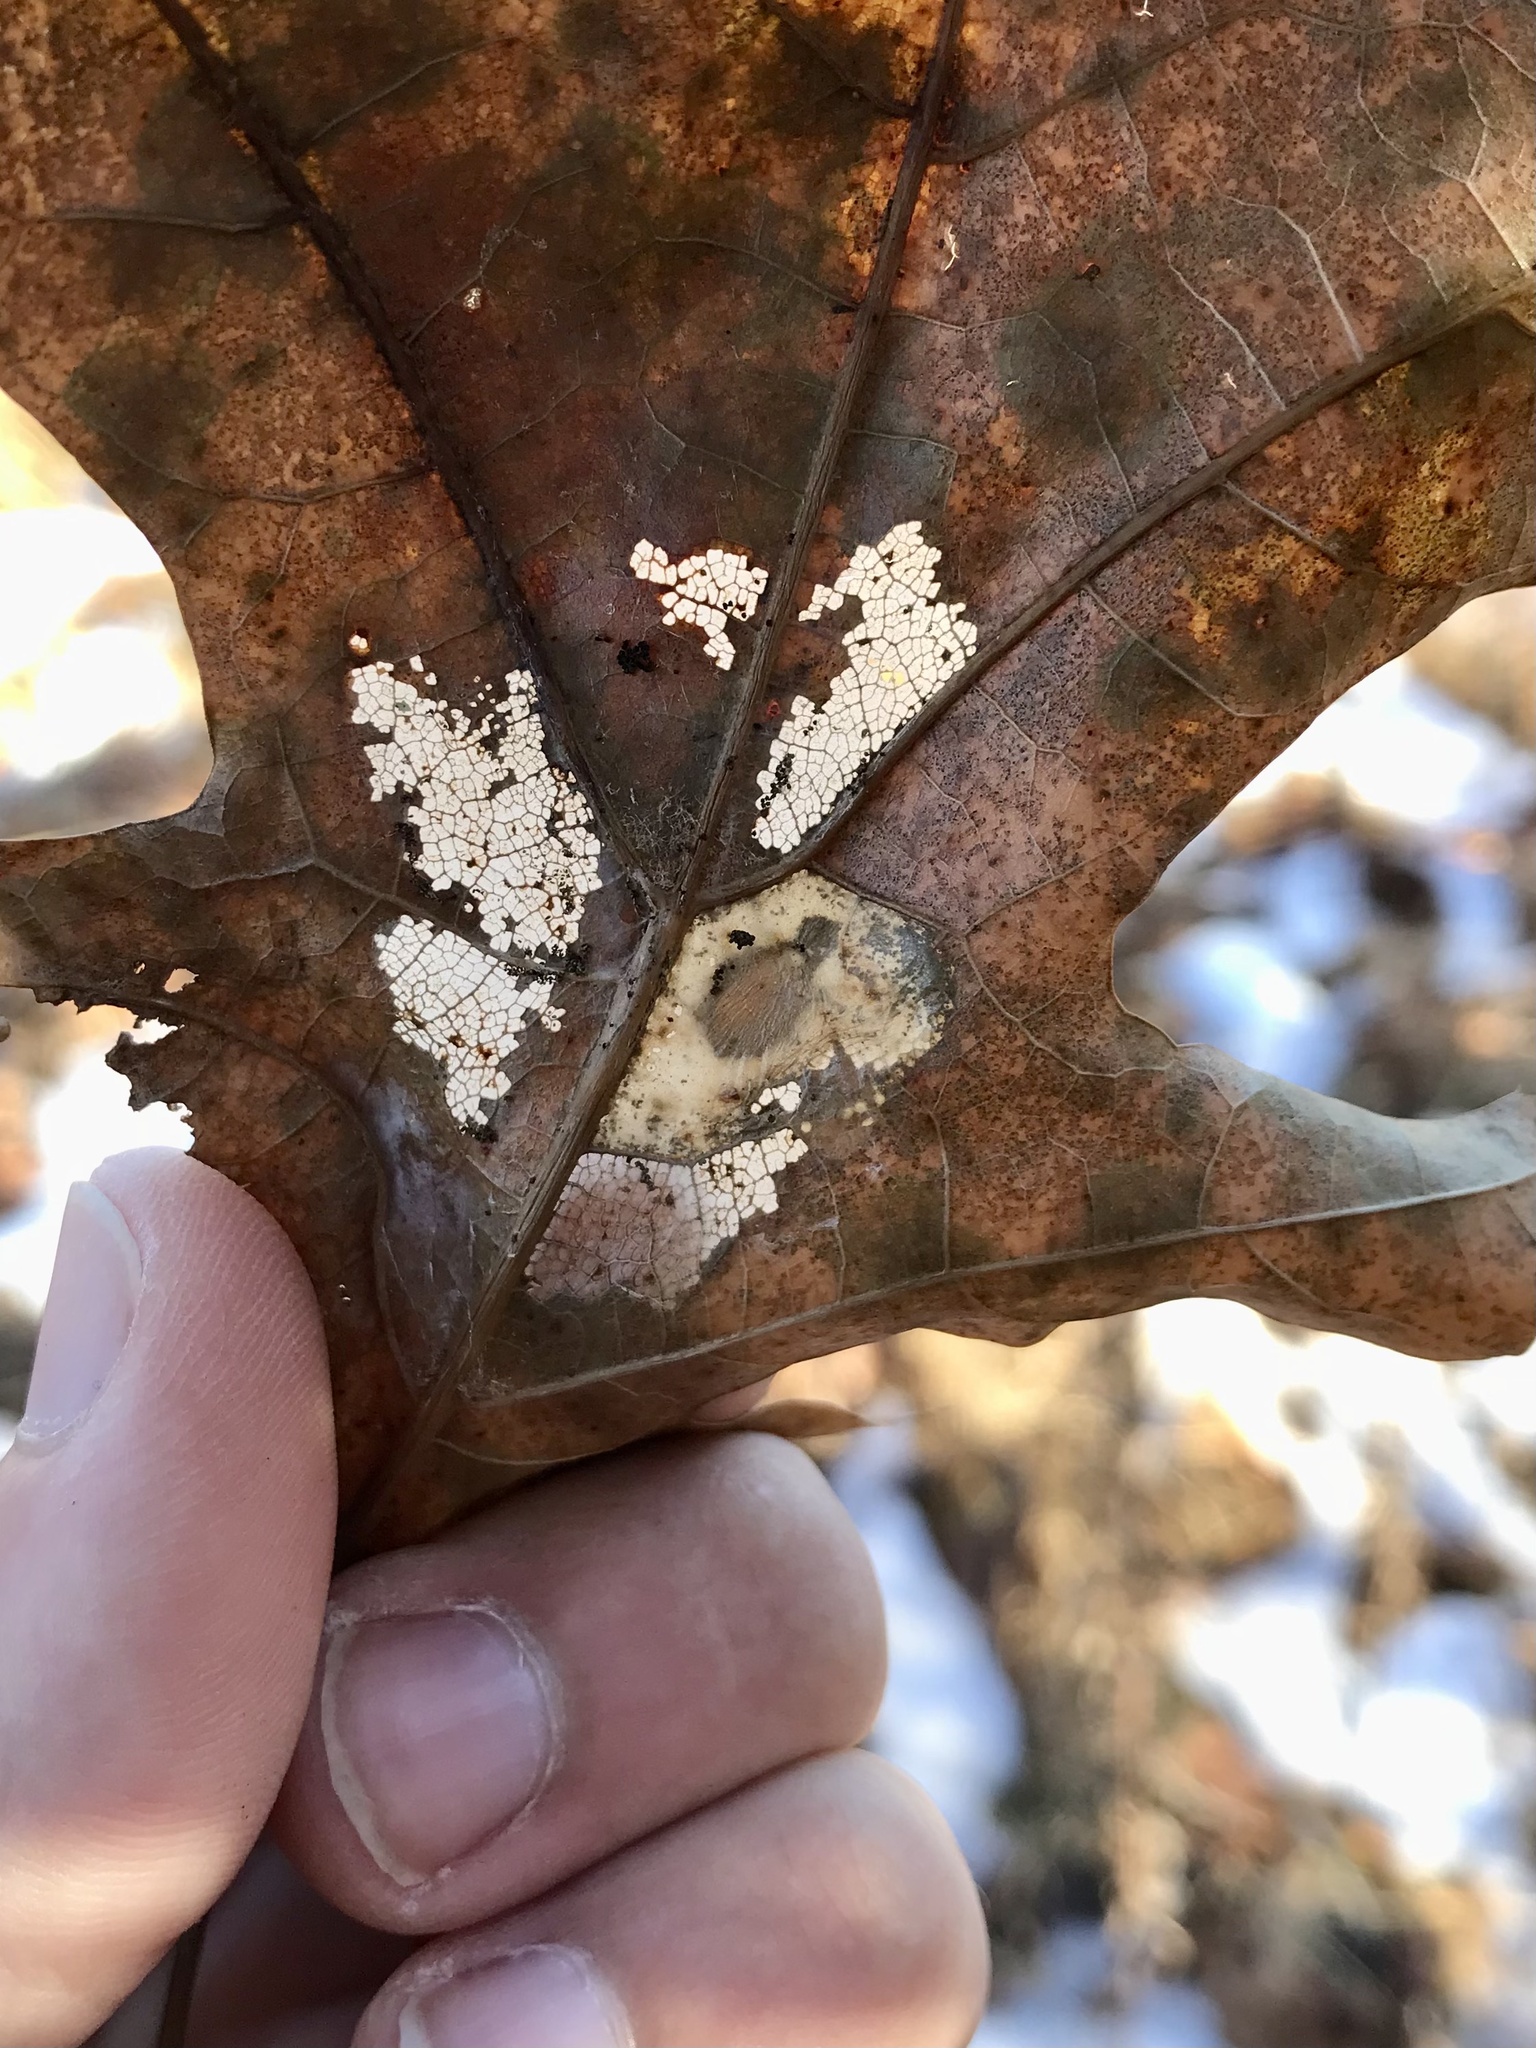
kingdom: Animalia
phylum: Arthropoda
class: Insecta
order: Lepidoptera
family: Gracillariidae
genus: Phyllonorycter
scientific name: Phyllonorycter basistrigella
